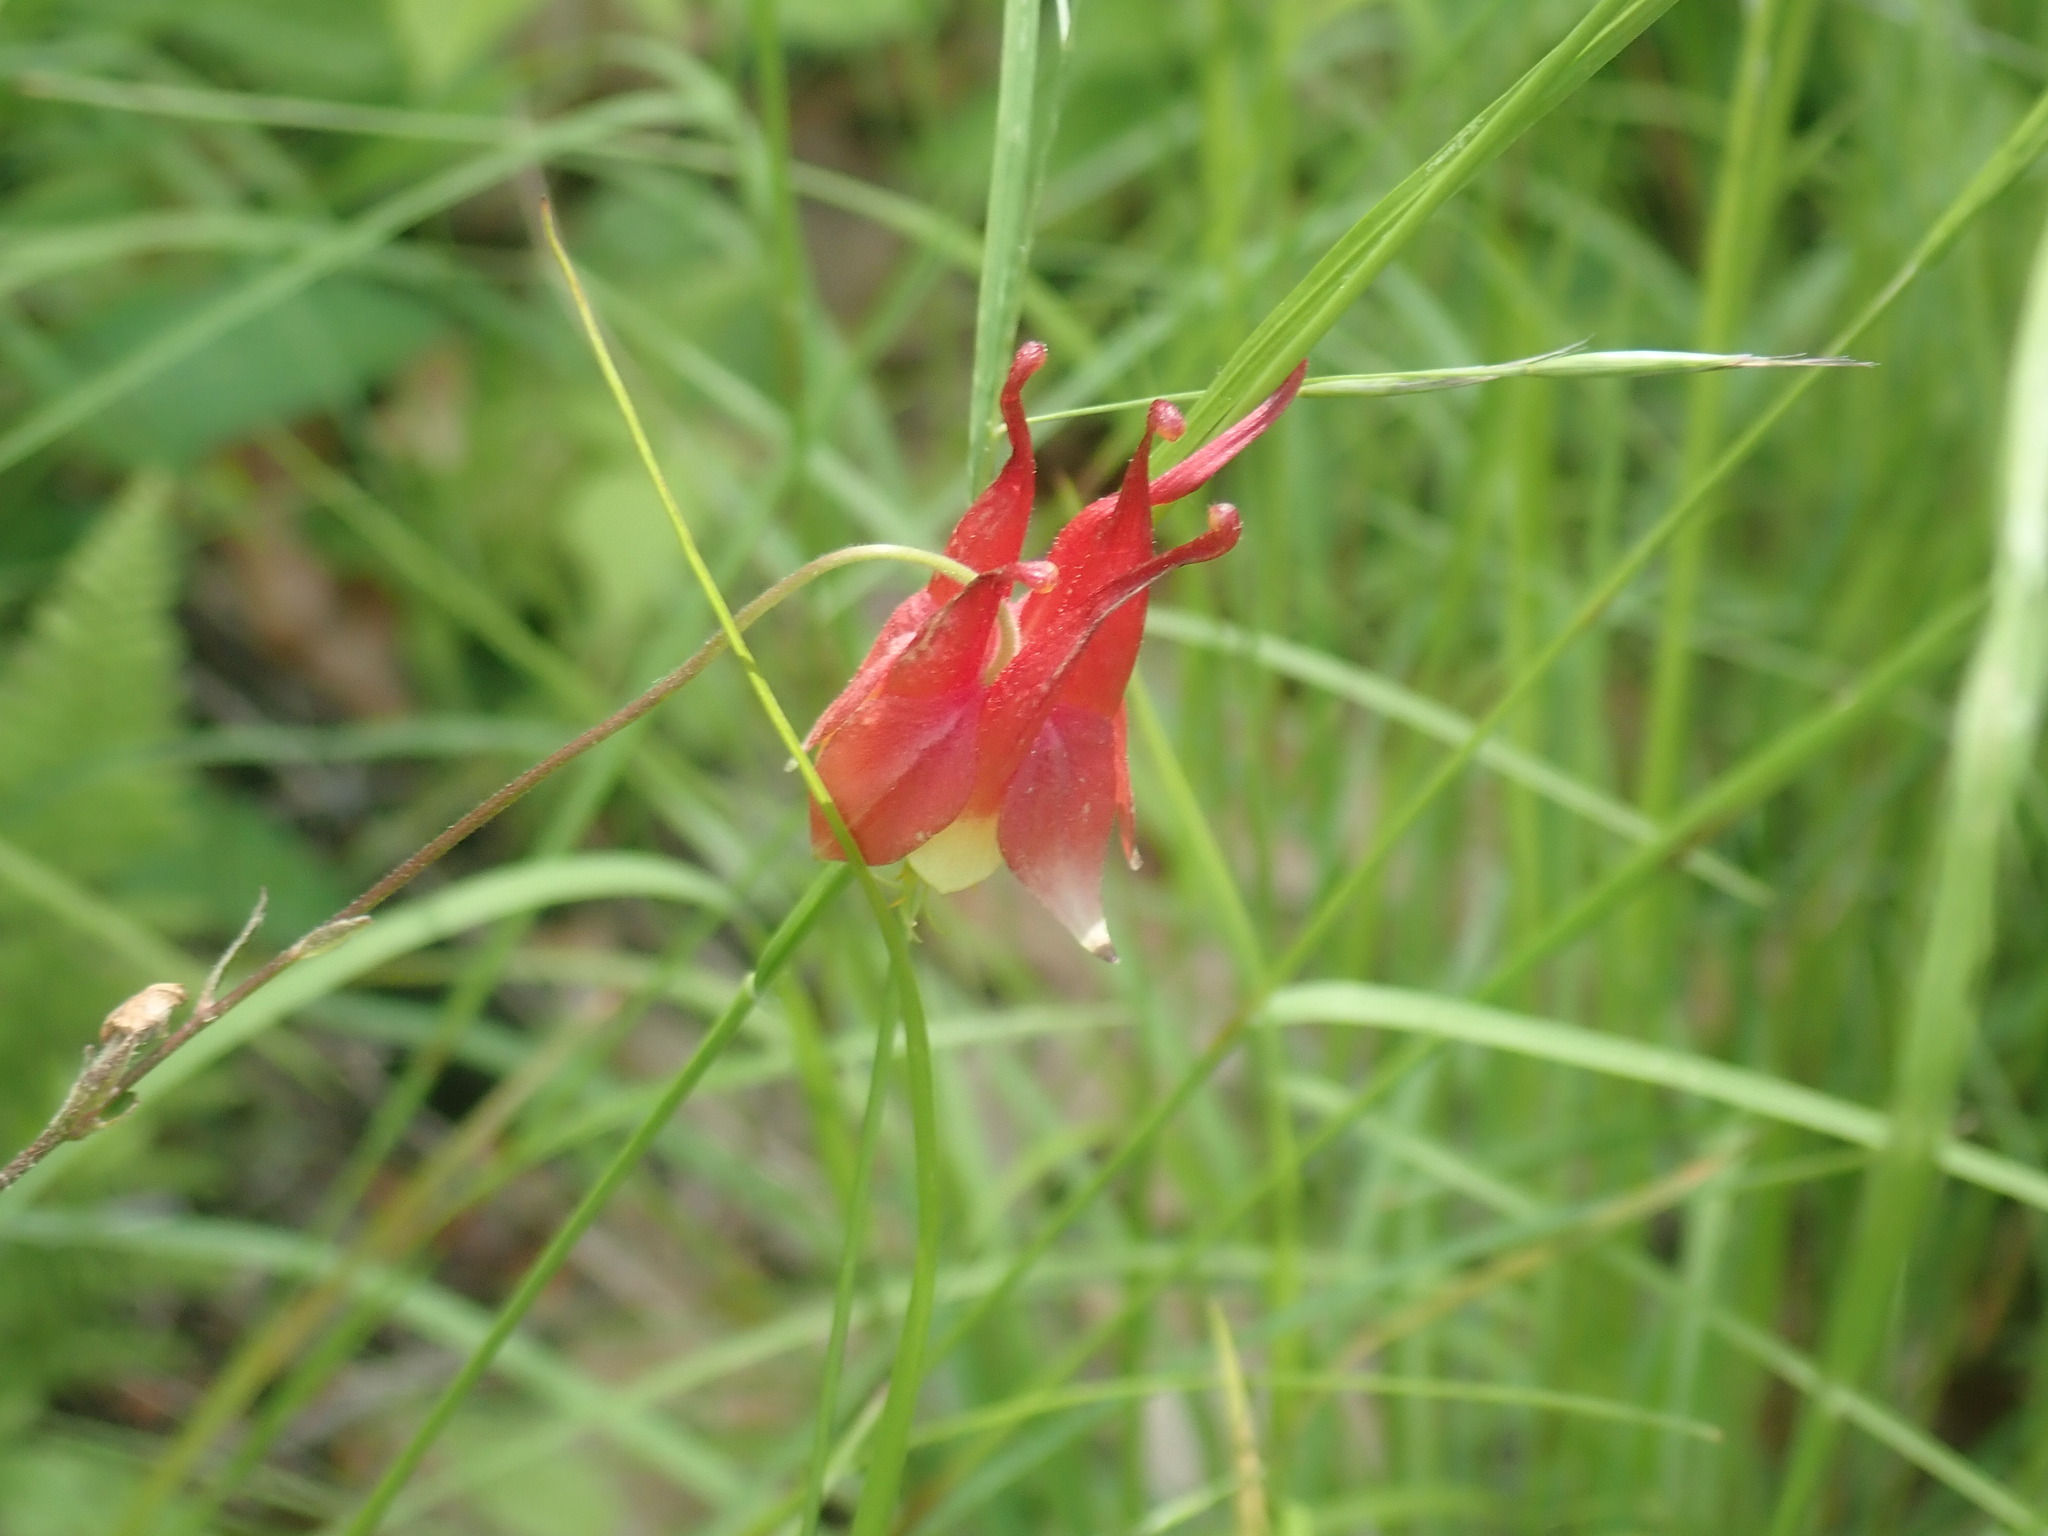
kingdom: Plantae
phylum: Tracheophyta
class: Magnoliopsida
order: Ranunculales
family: Ranunculaceae
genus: Aquilegia
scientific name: Aquilegia canadensis
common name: American columbine
